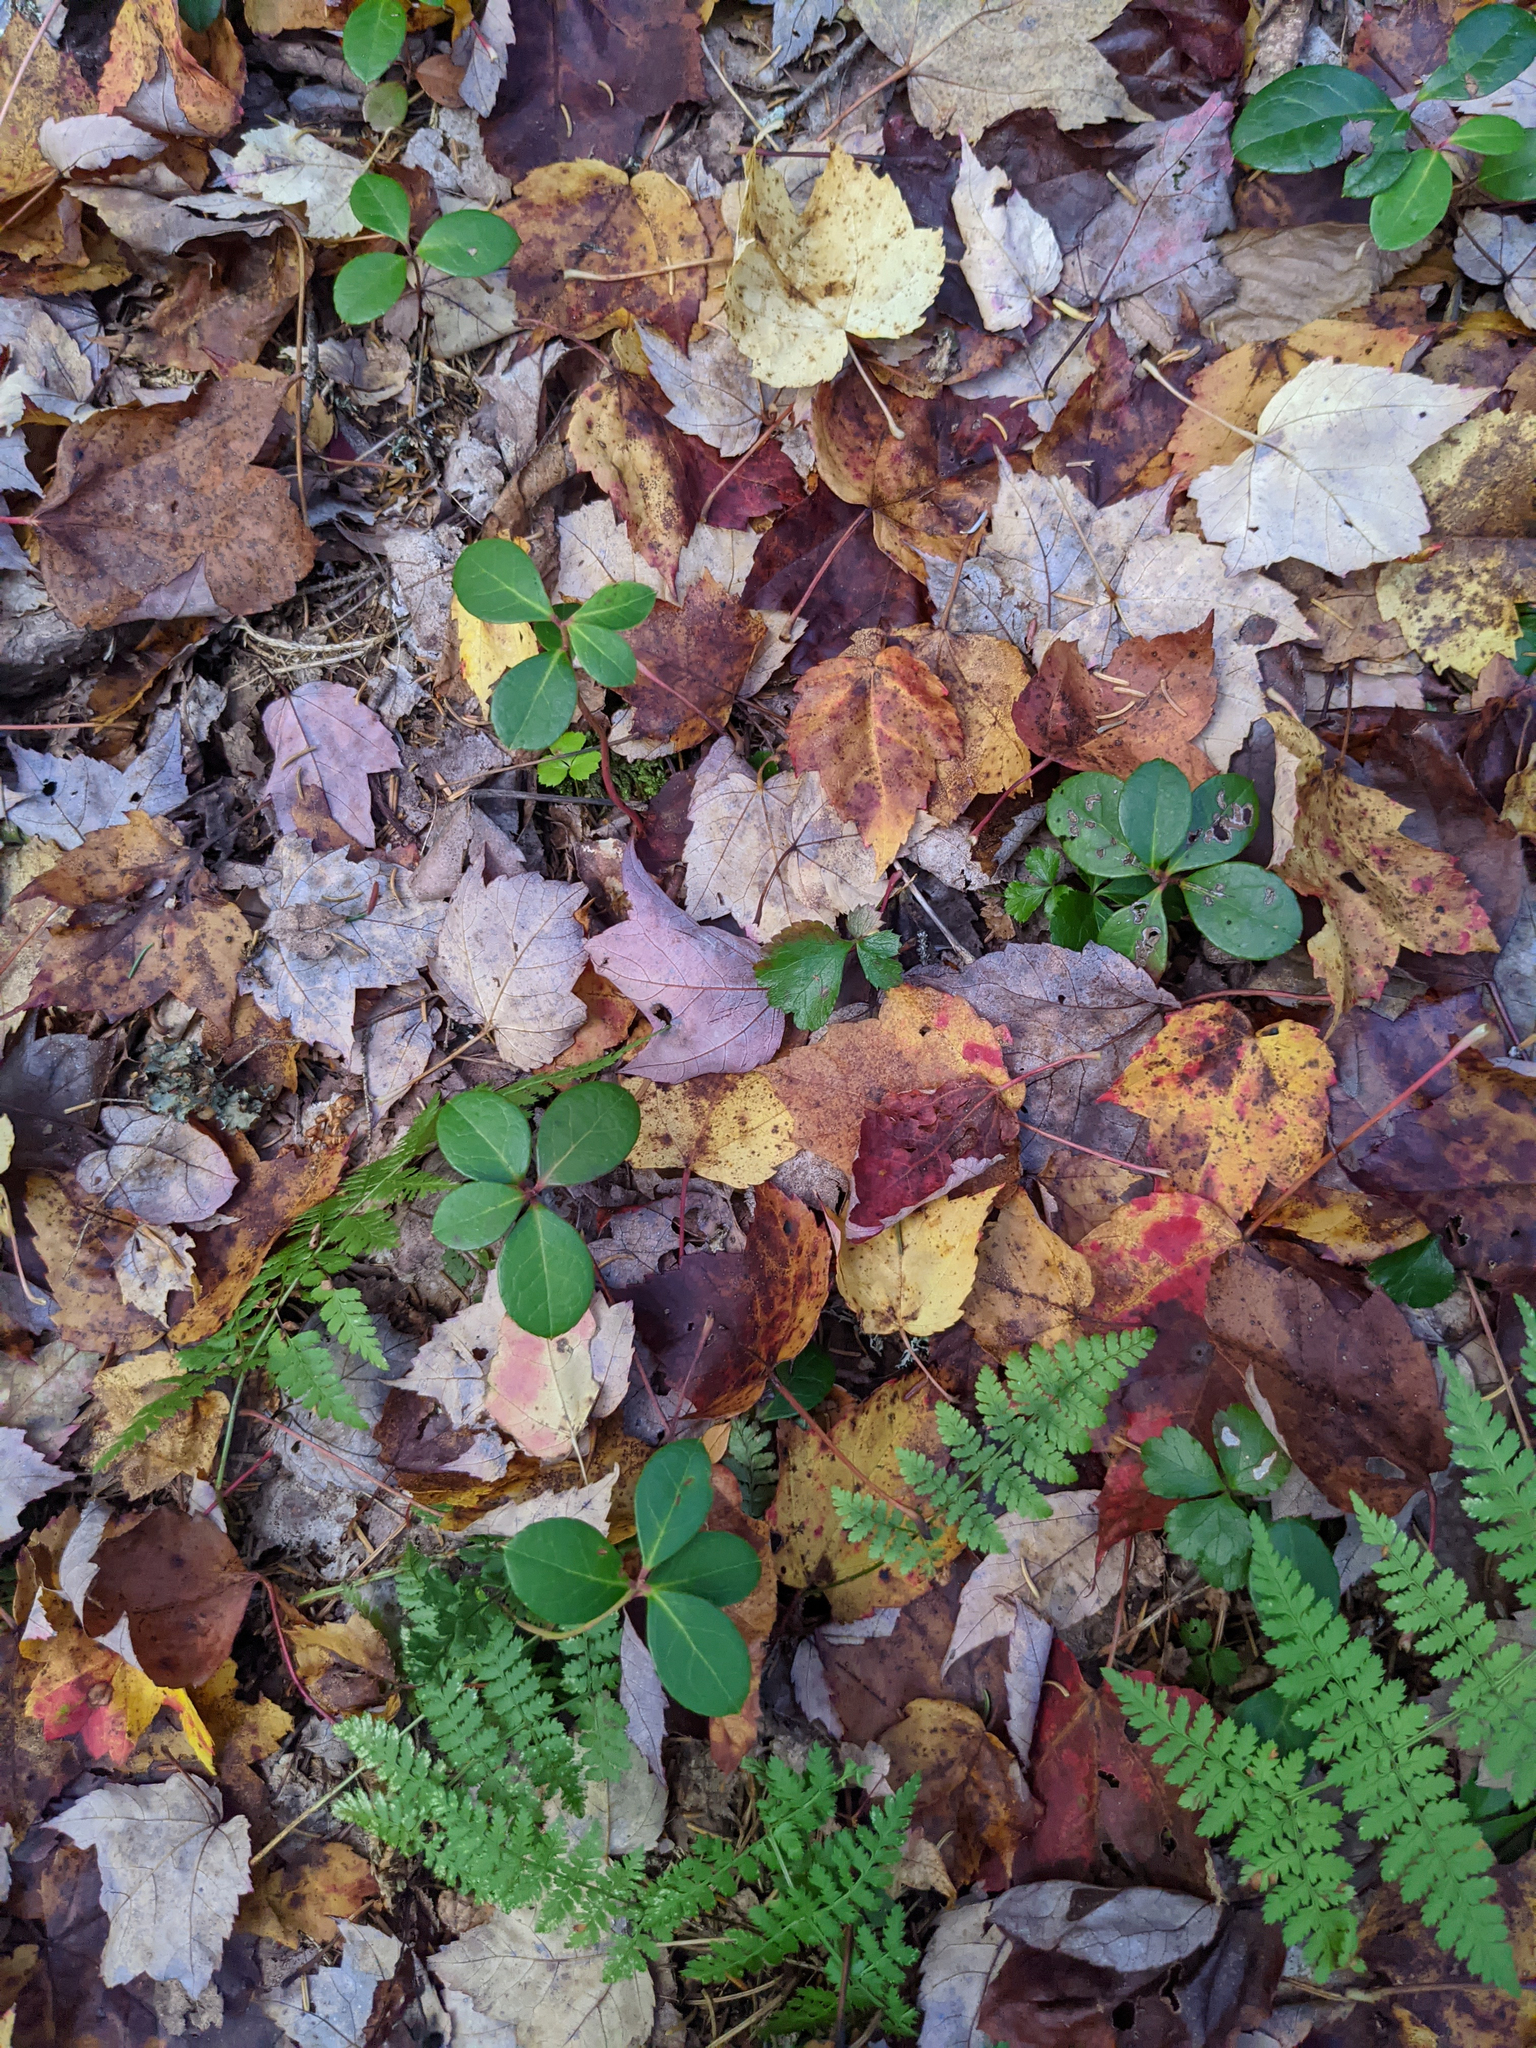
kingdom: Plantae
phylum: Tracheophyta
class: Magnoliopsida
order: Ericales
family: Ericaceae
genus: Gaultheria
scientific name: Gaultheria procumbens
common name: Checkerberry
